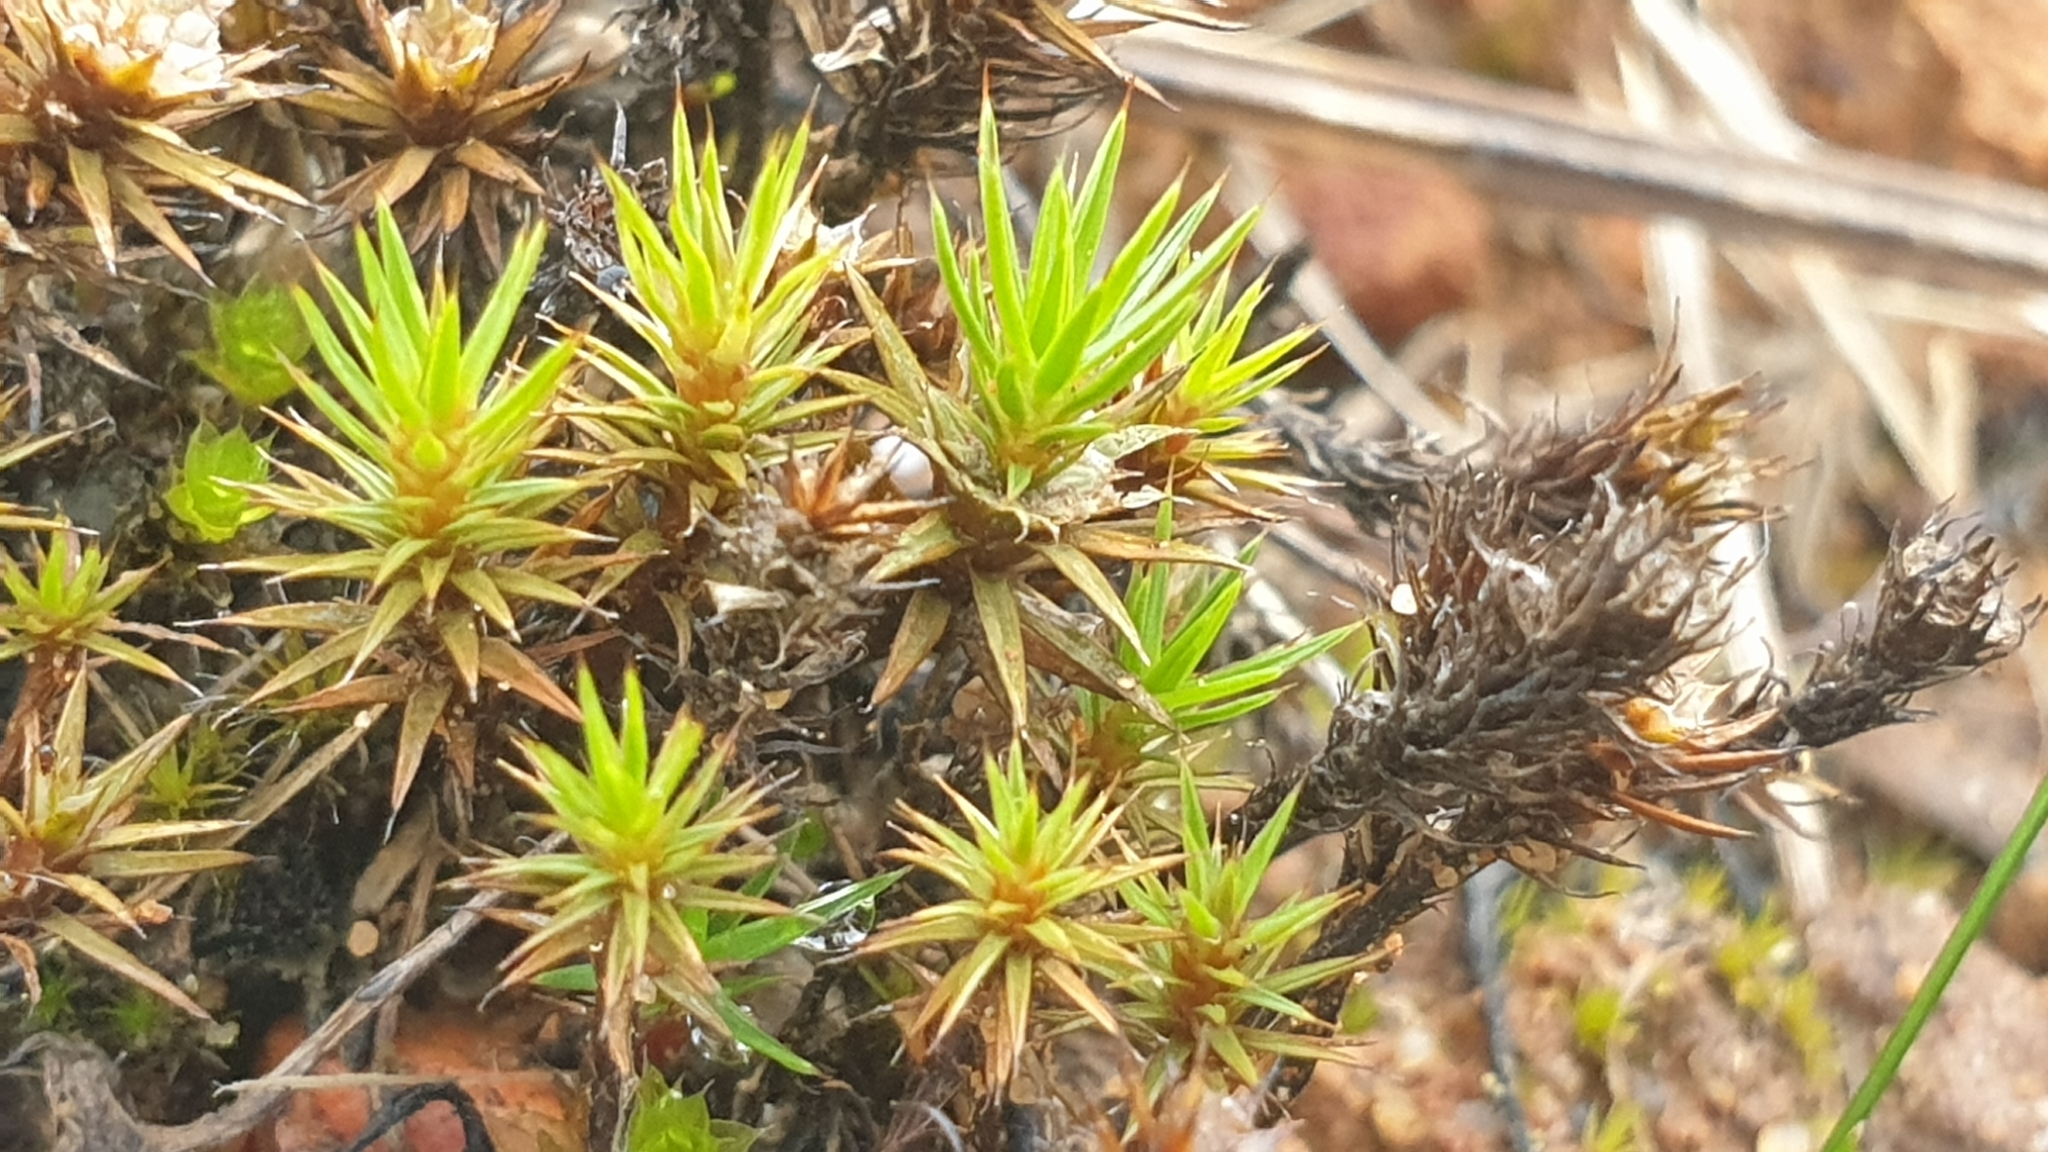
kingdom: Plantae
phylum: Bryophyta
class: Polytrichopsida
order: Polytrichales
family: Polytrichaceae
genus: Polytrichum
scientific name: Polytrichum juniperinum
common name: Juniper haircap moss
